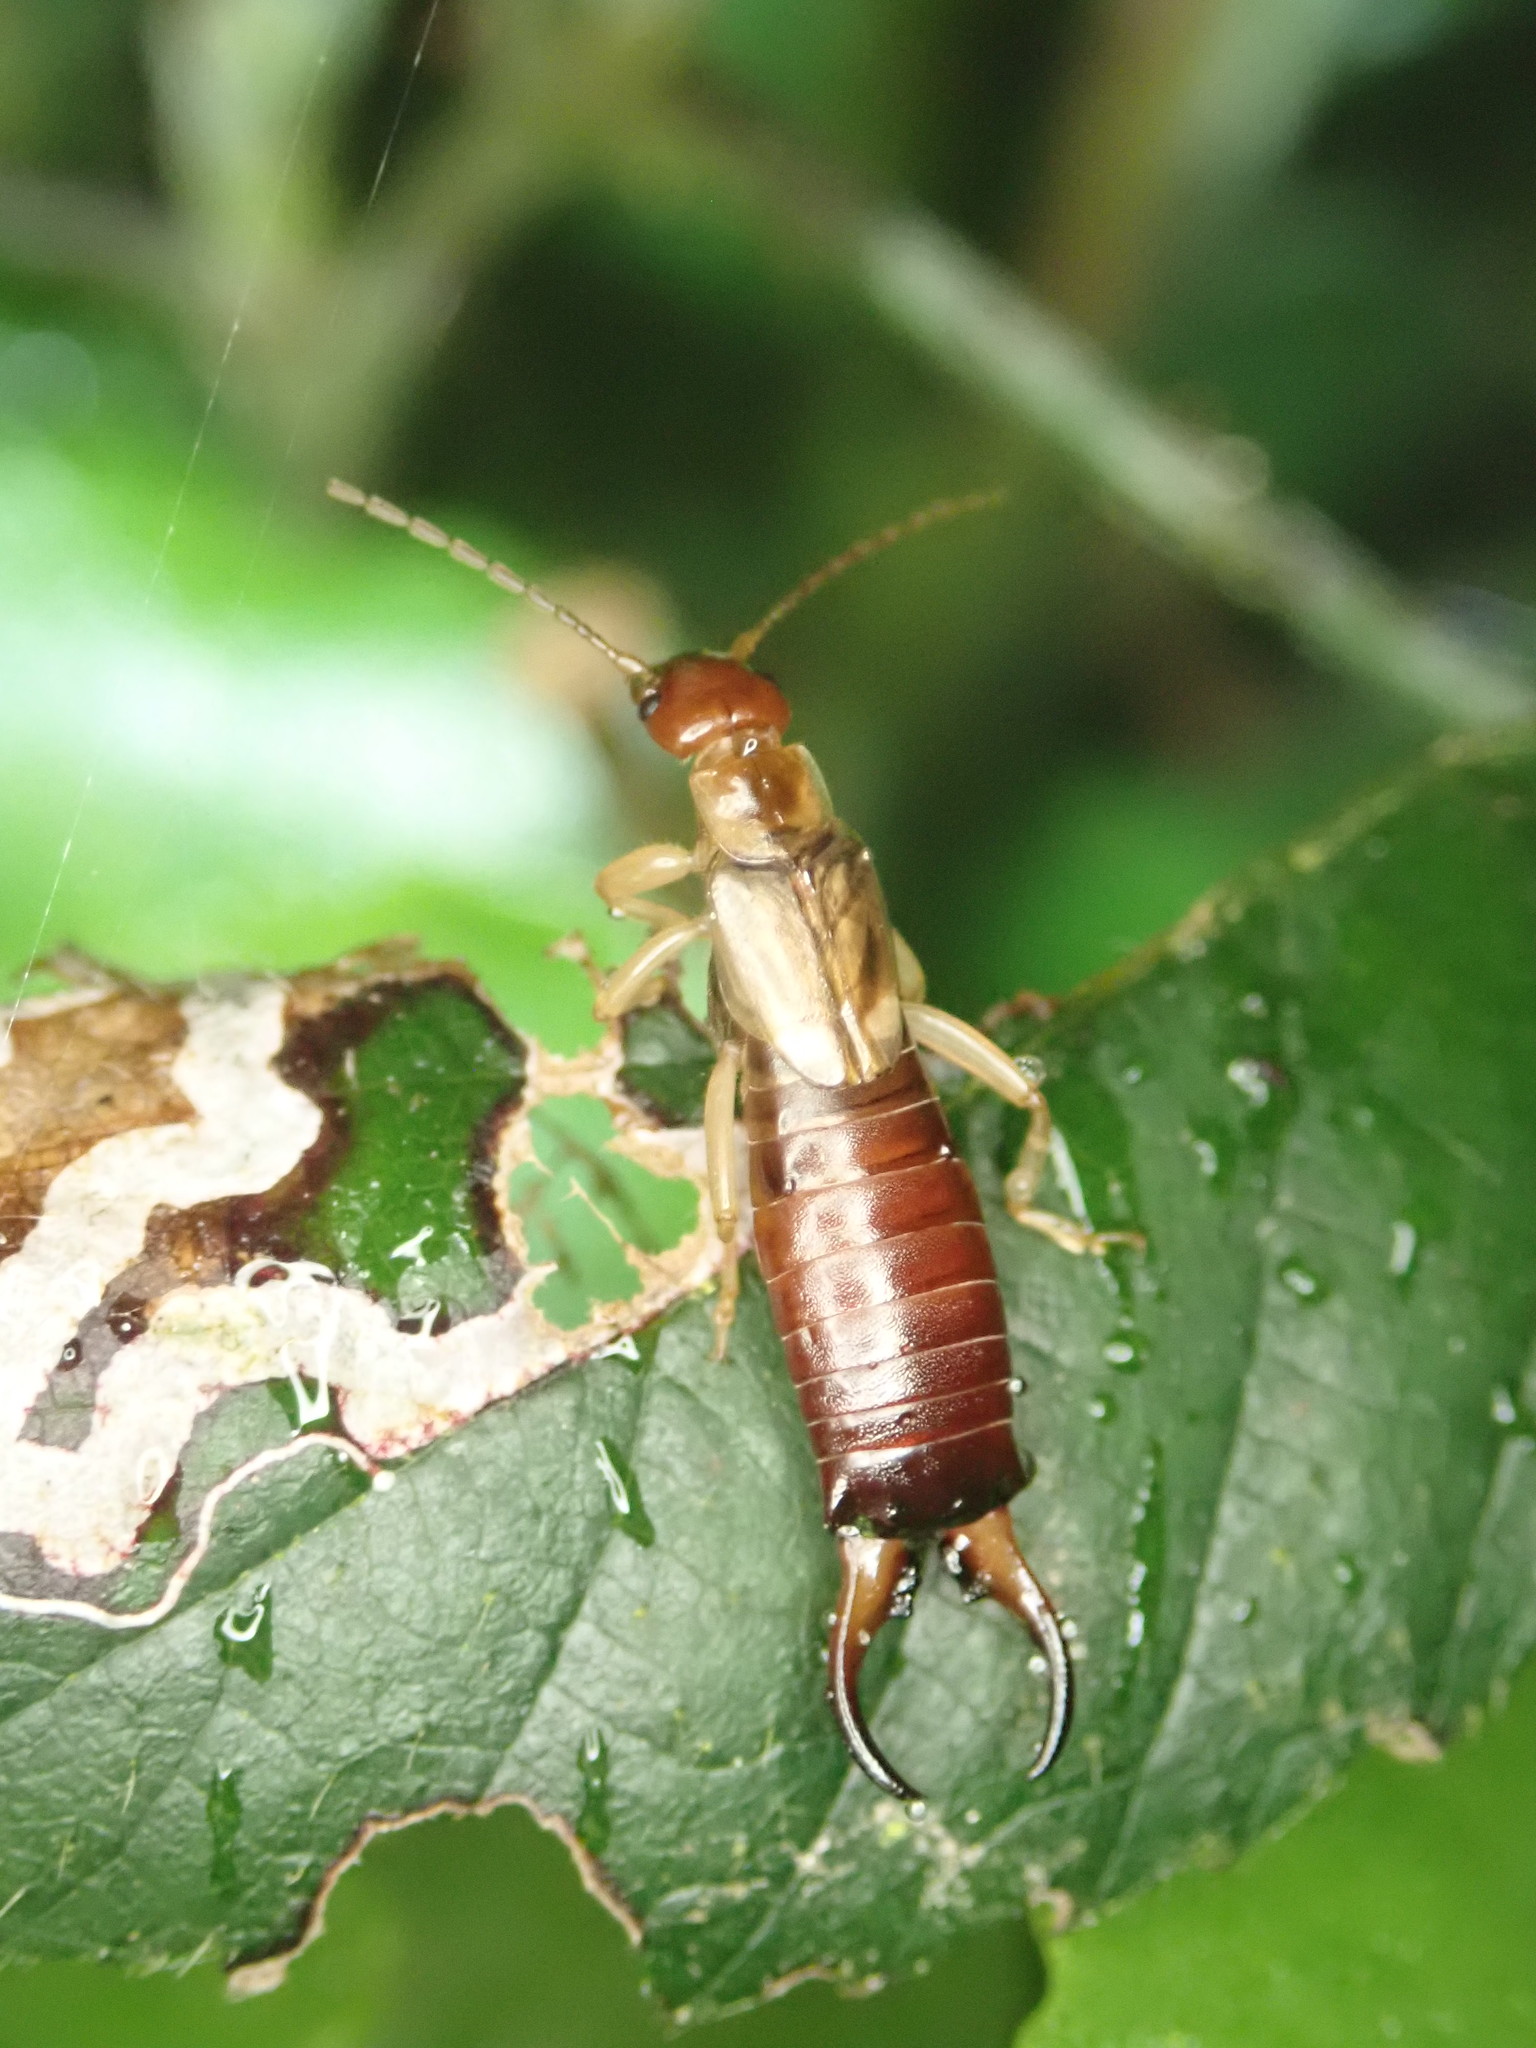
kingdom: Animalia
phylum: Arthropoda
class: Insecta
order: Dermaptera
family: Forficulidae
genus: Forficula
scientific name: Forficula
